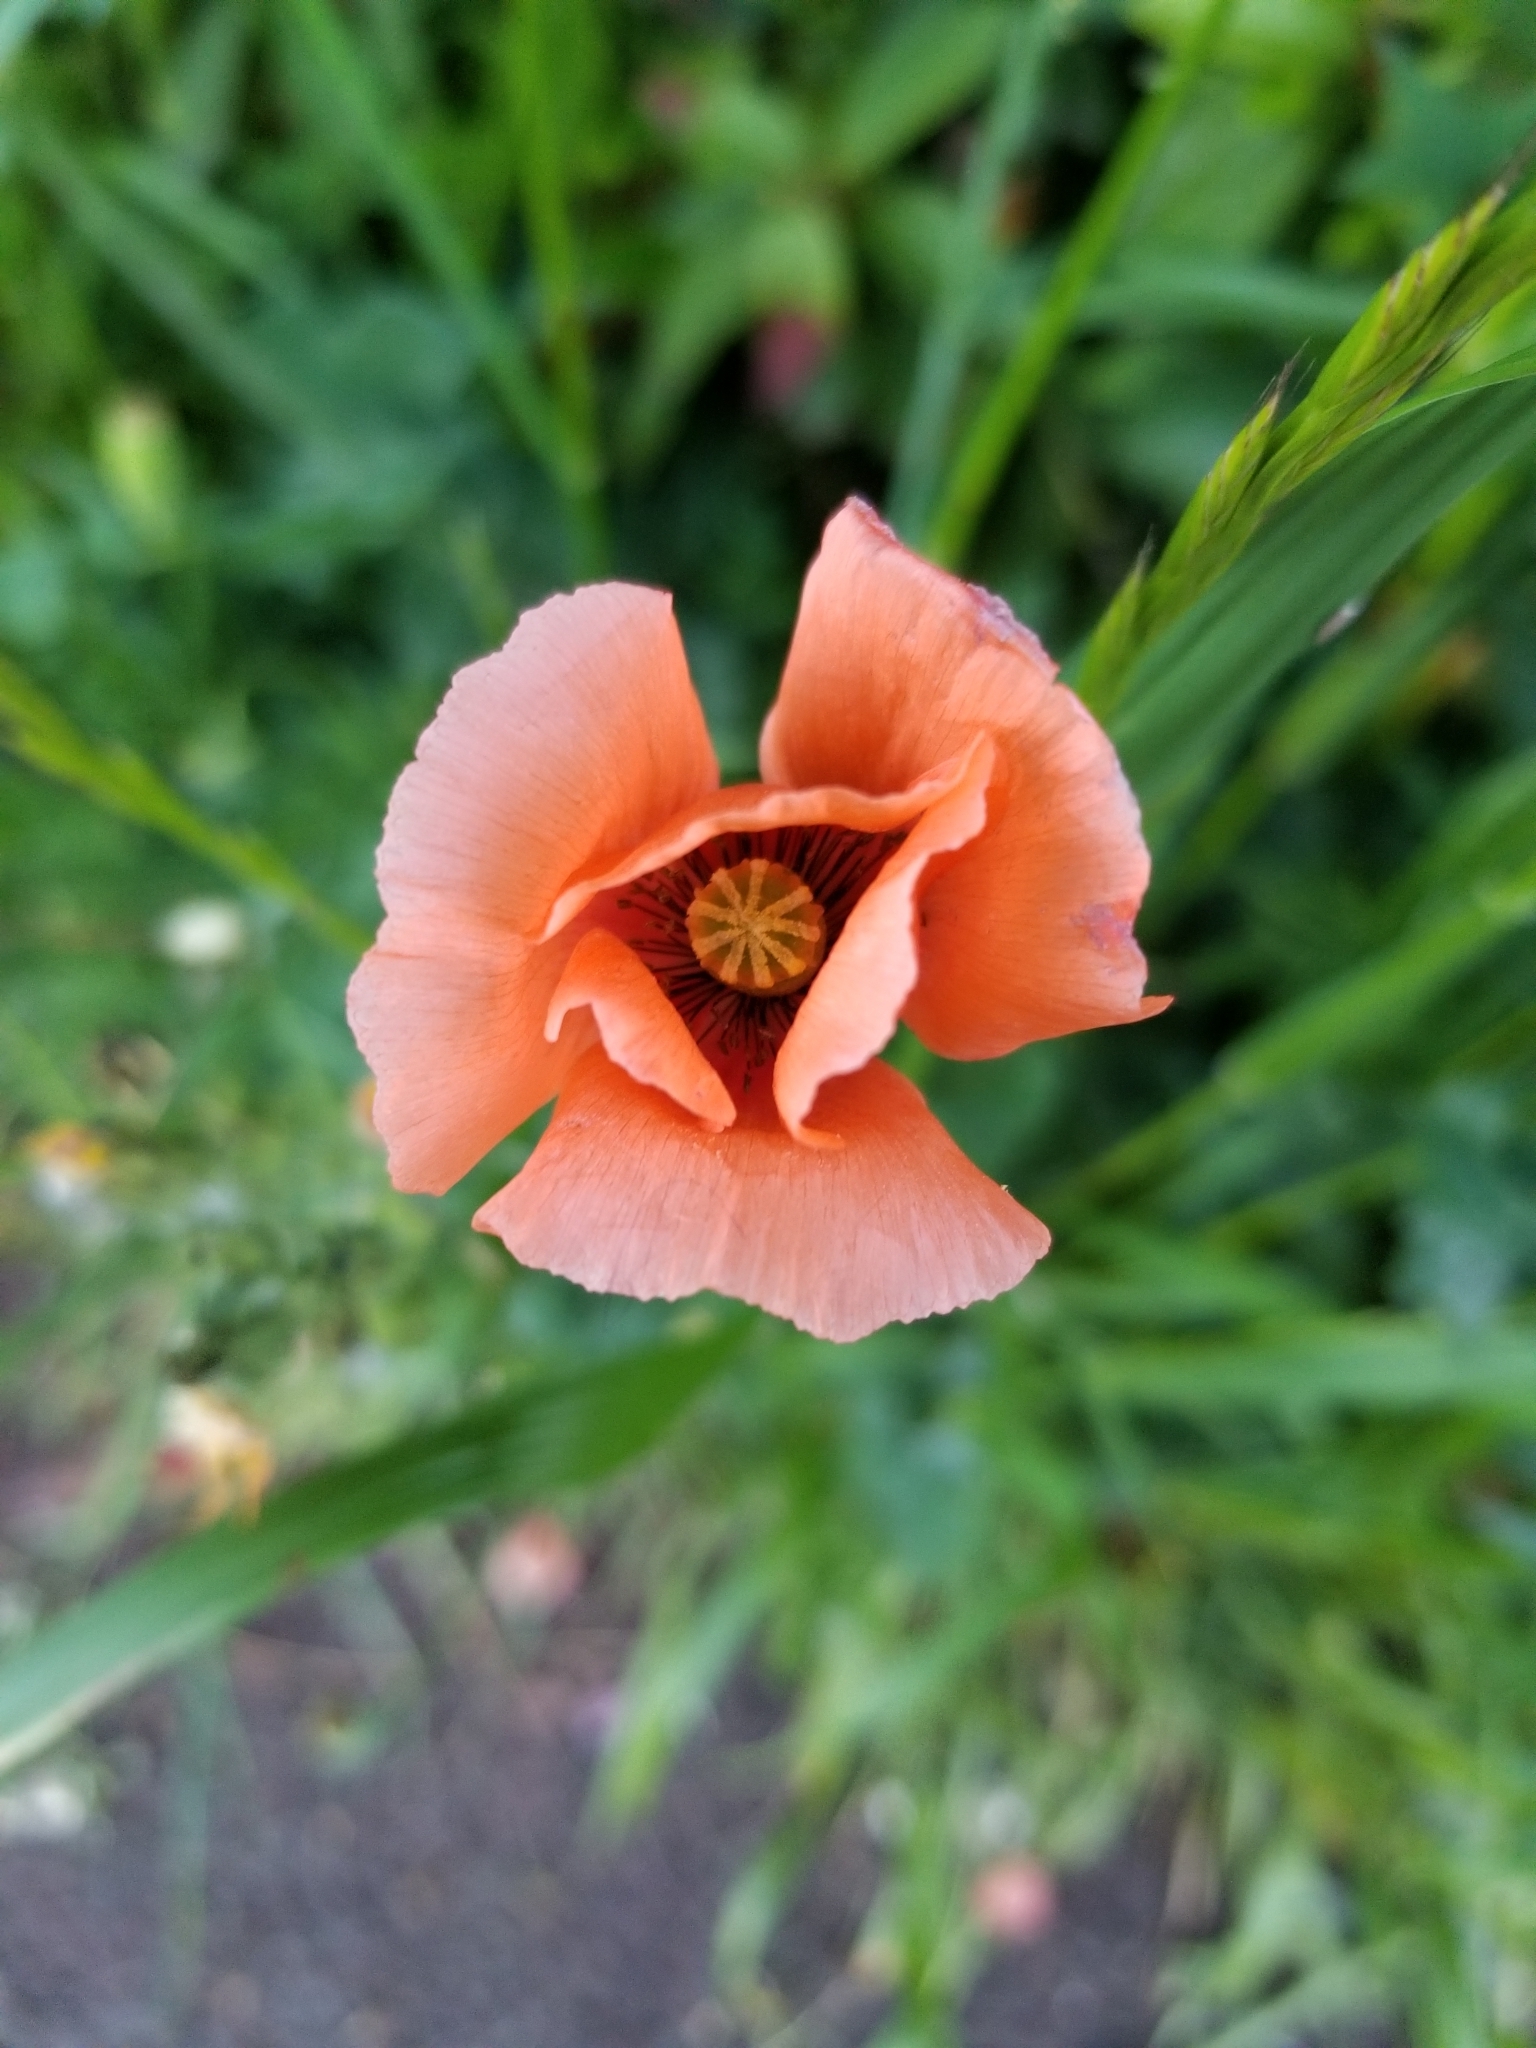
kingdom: Plantae
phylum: Tracheophyta
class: Magnoliopsida
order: Ranunculales
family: Papaveraceae
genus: Papaver
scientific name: Papaver dubium
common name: Long-headed poppy
